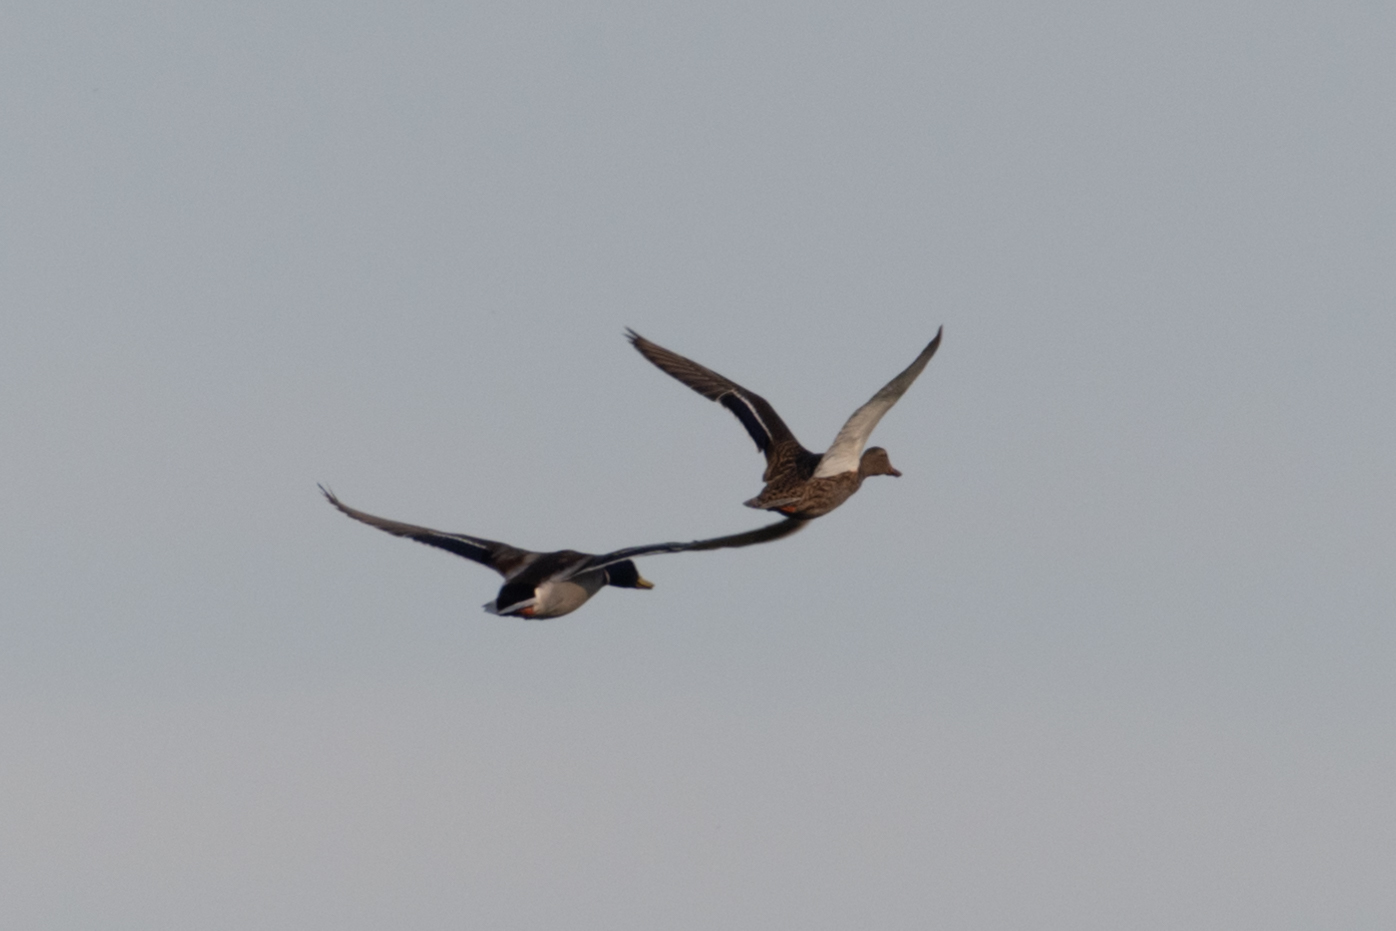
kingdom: Animalia
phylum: Chordata
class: Aves
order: Anseriformes
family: Anatidae
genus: Anas
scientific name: Anas platyrhynchos
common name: Mallard
